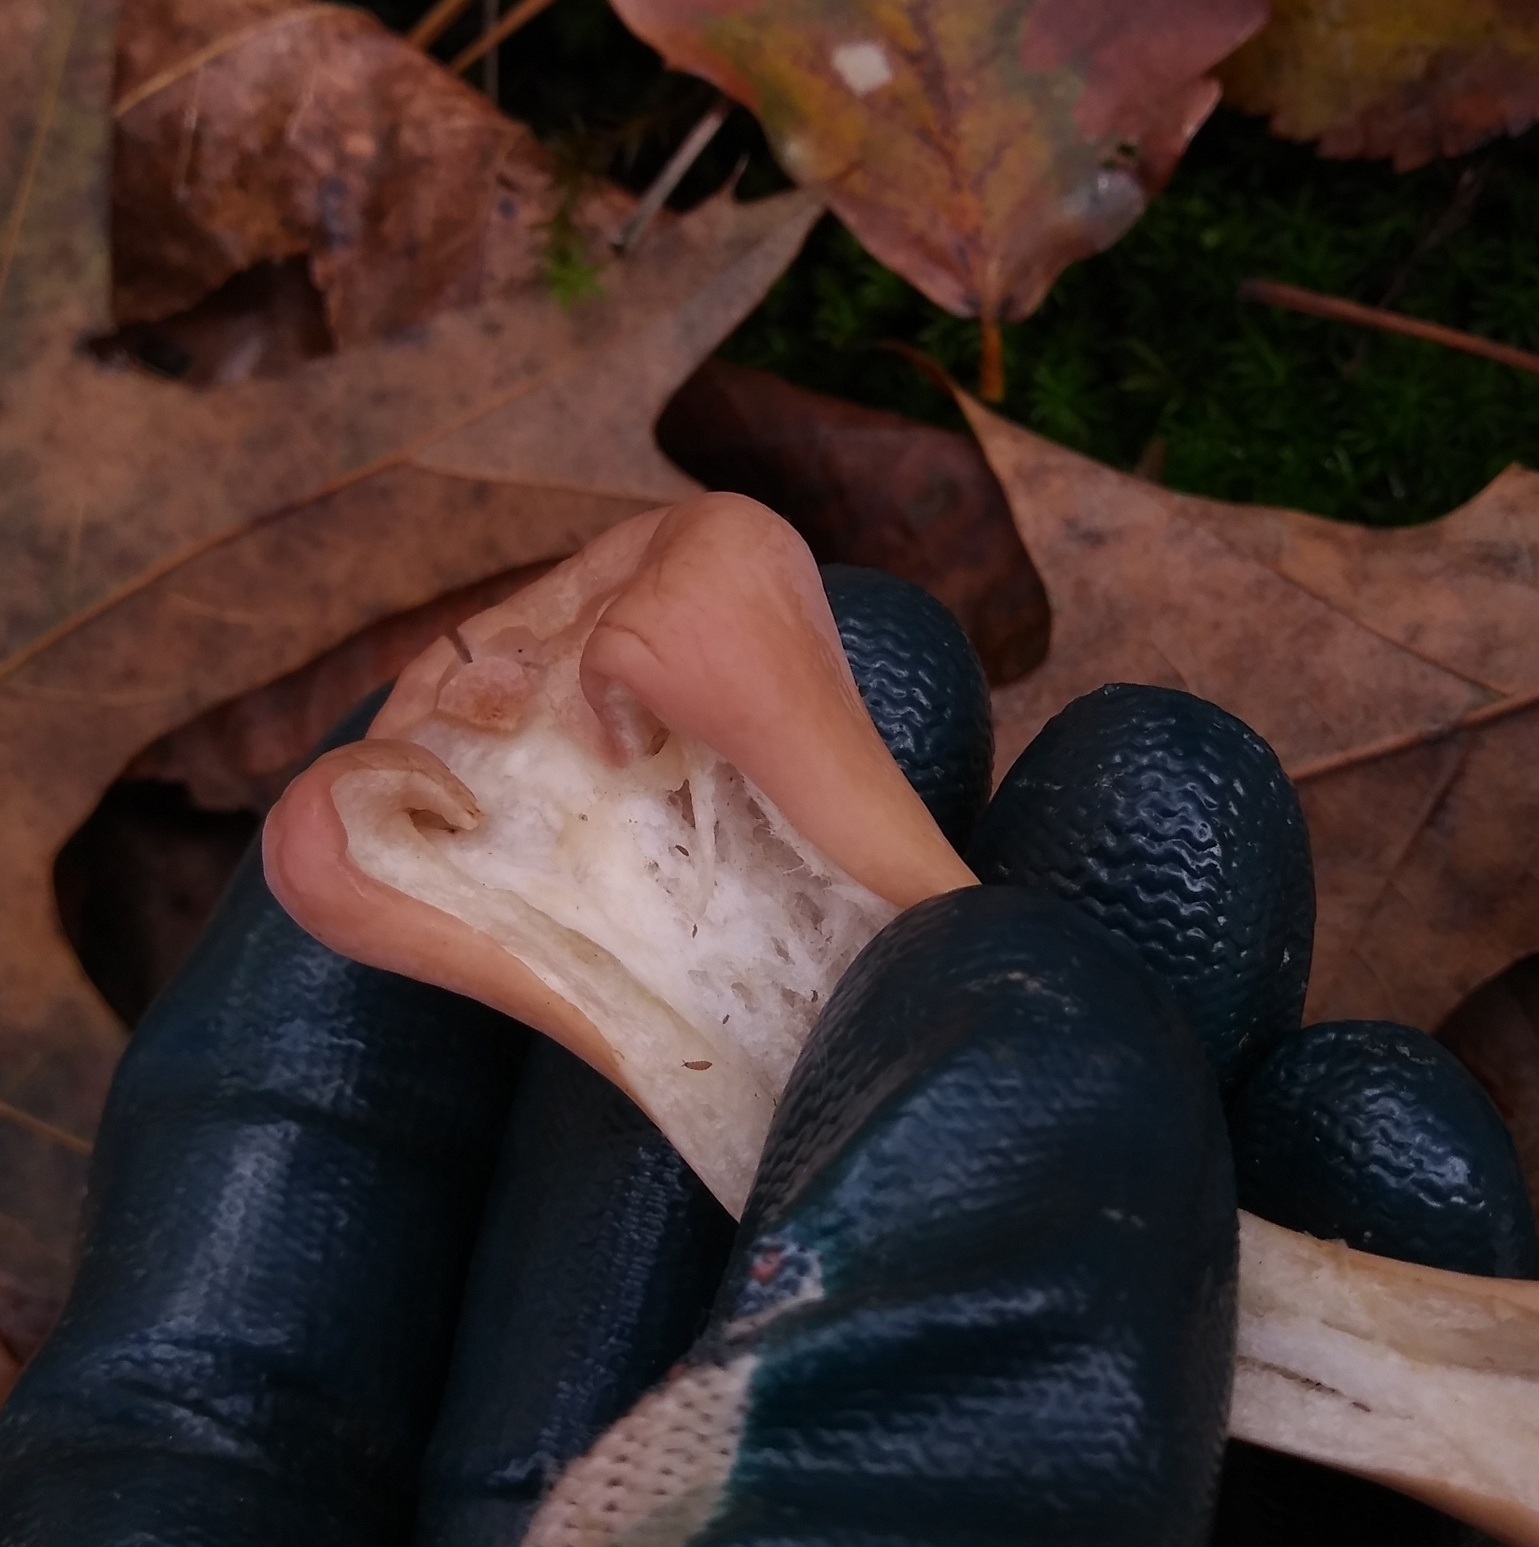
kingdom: Fungi
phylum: Basidiomycota
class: Agaricomycetes
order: Gomphales
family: Clavariadelphaceae
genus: Clavariadelphus
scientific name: Clavariadelphus unicolor
